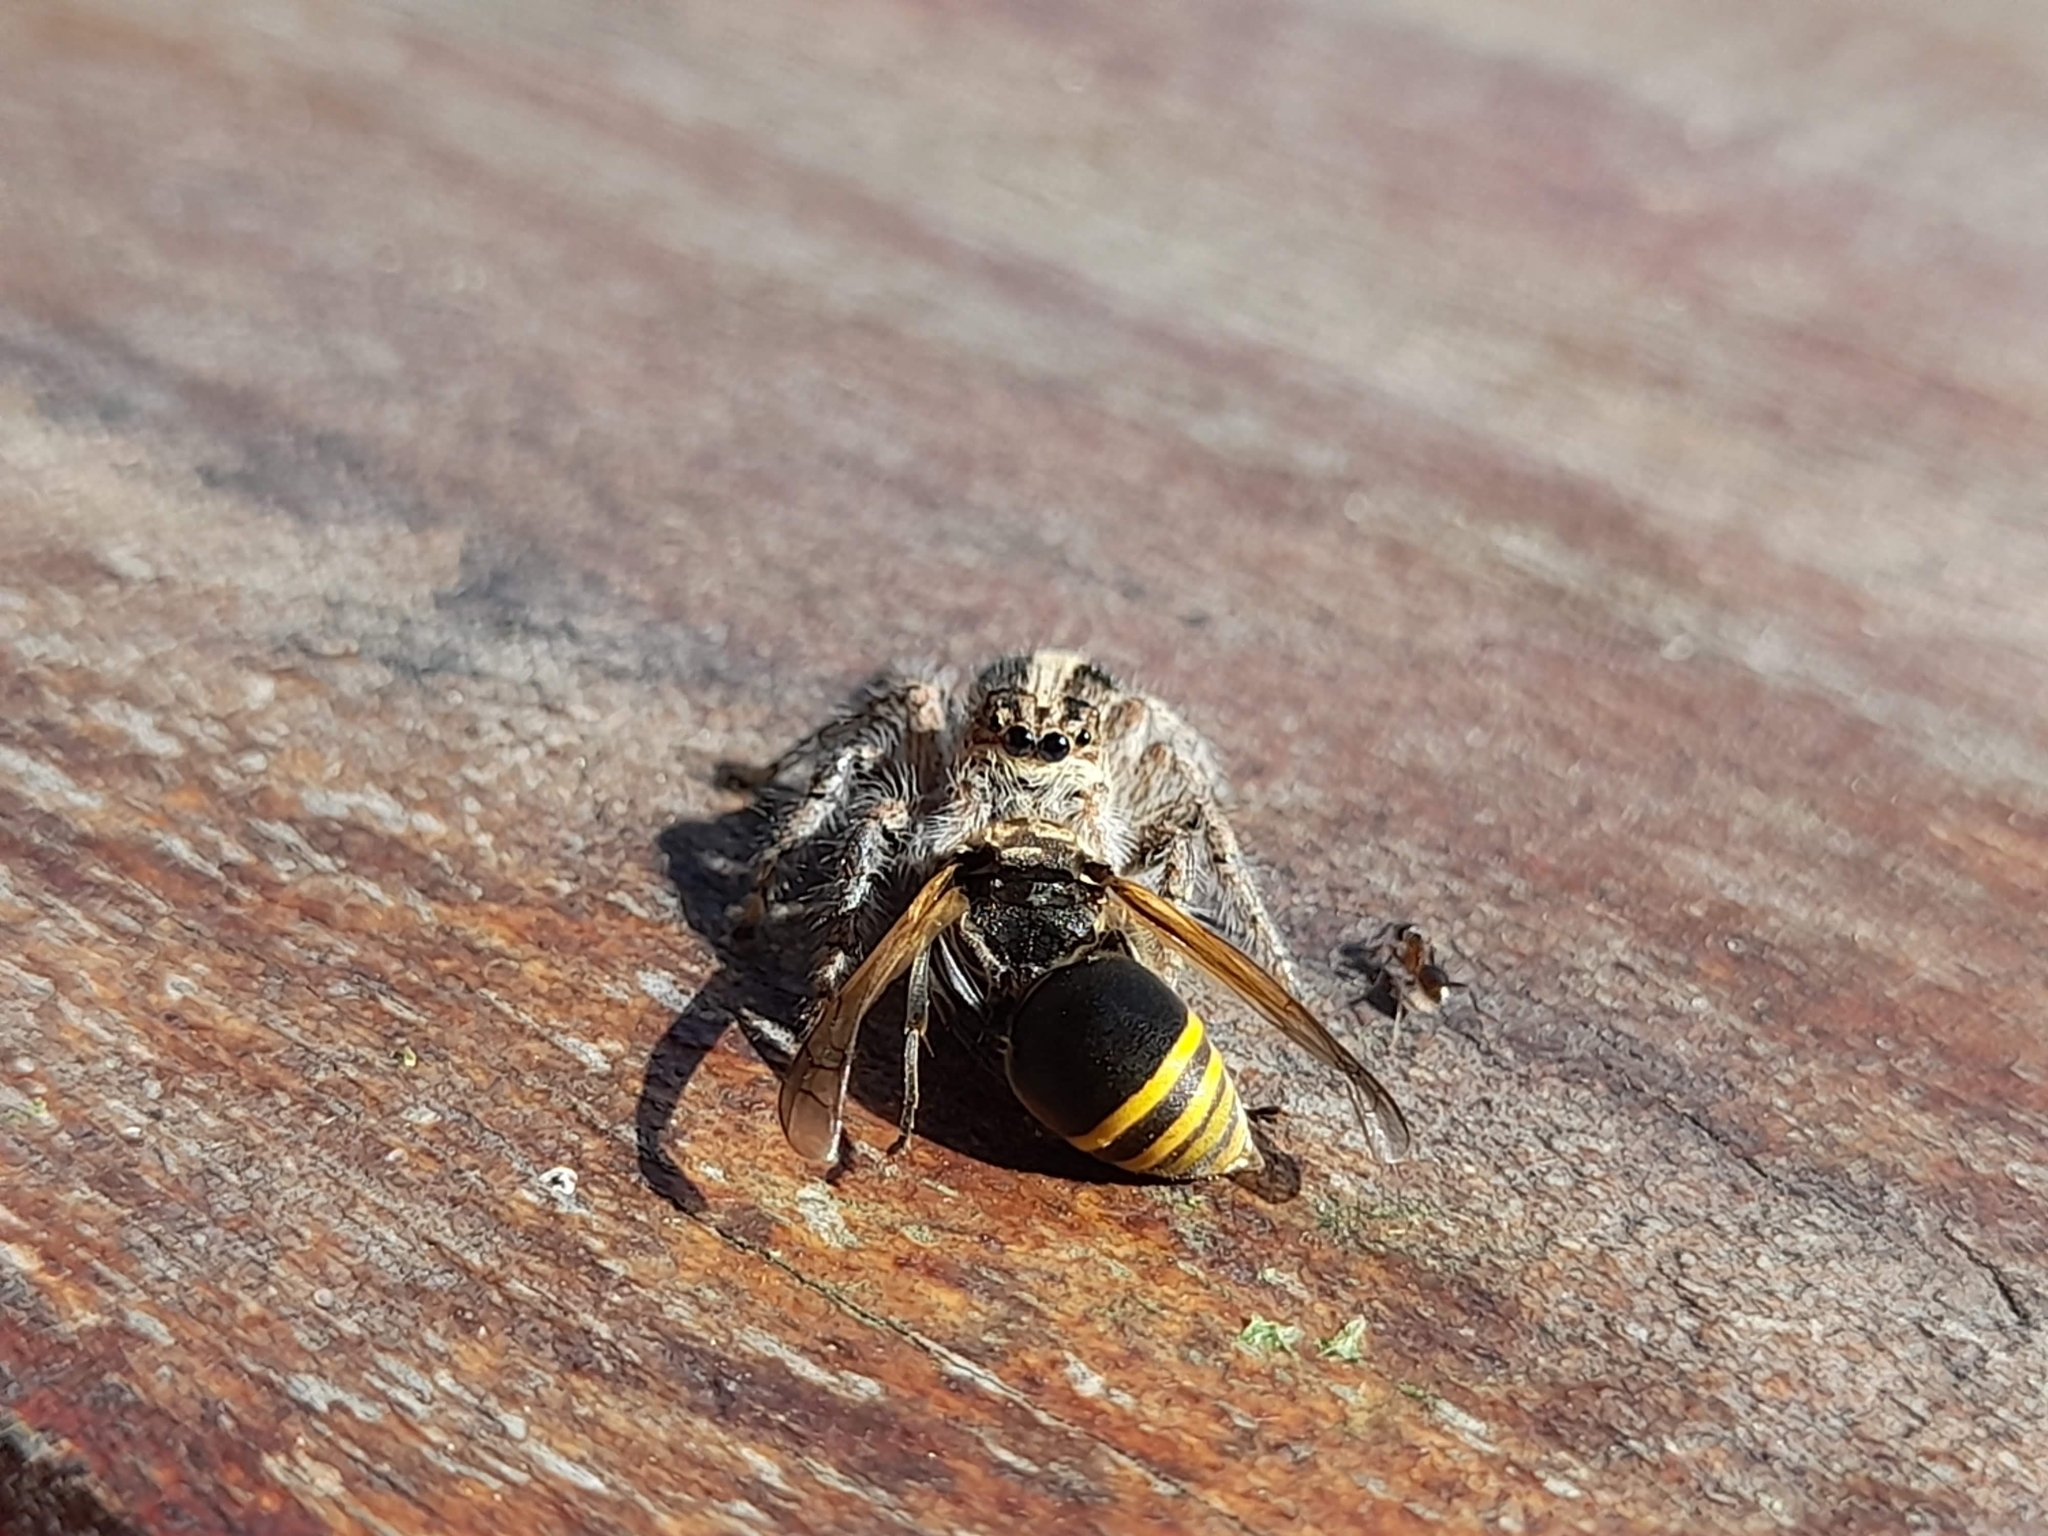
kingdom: Animalia
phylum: Arthropoda
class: Arachnida
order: Araneae
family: Salticidae
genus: Megafreya
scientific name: Megafreya sutrix
